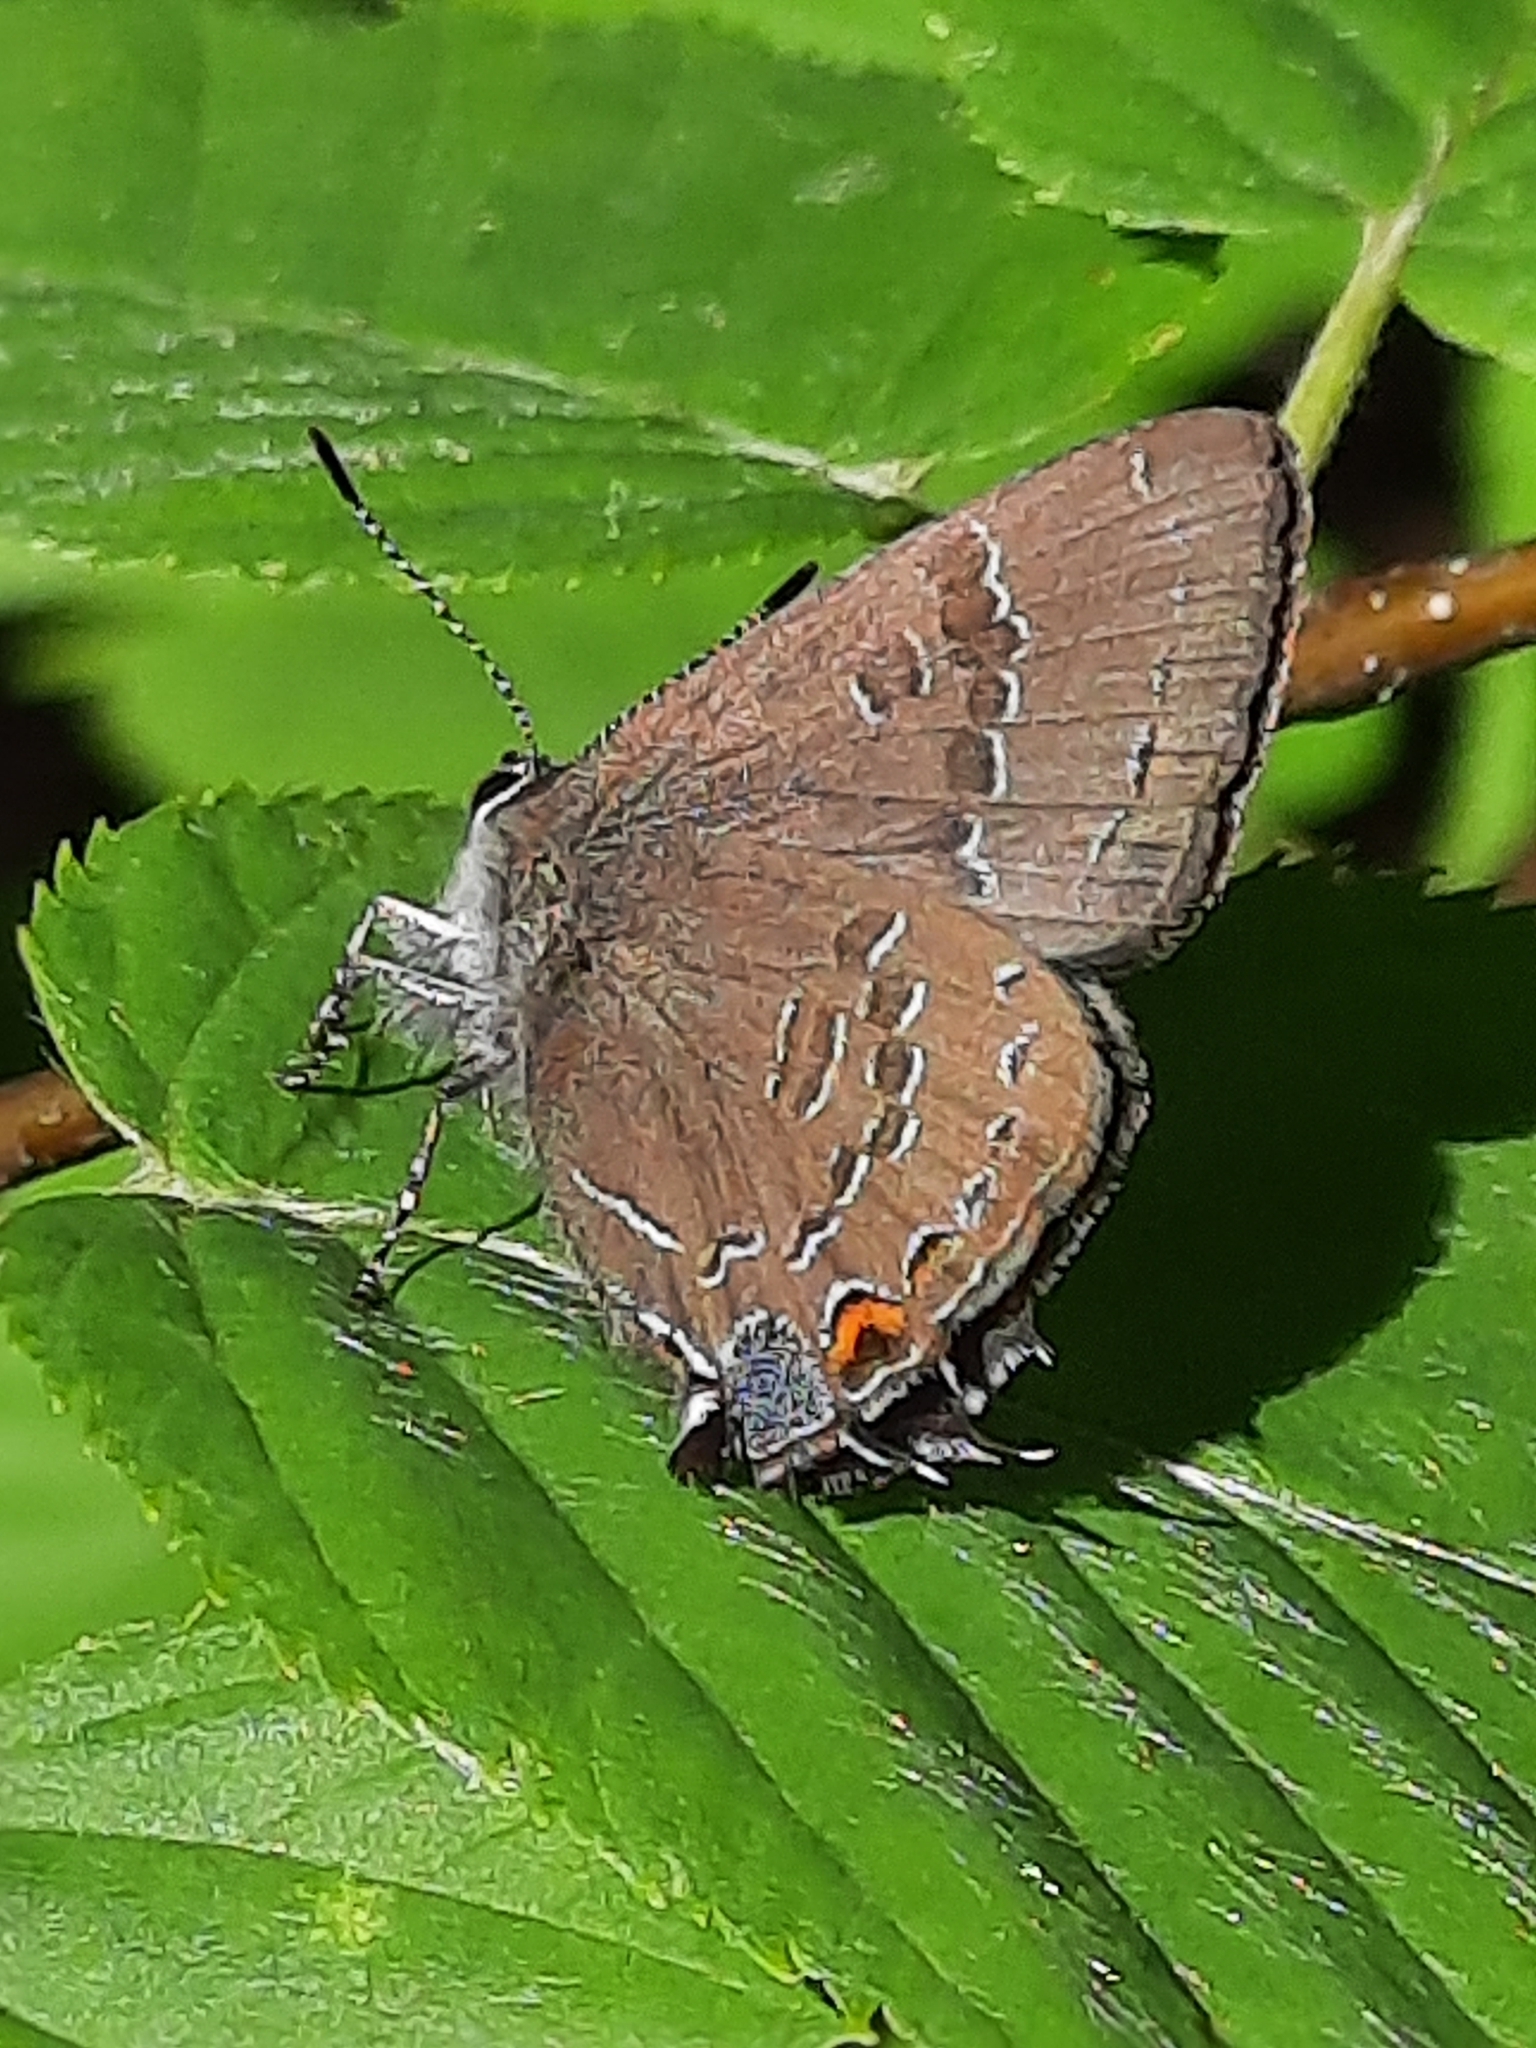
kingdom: Animalia
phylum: Arthropoda
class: Insecta
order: Lepidoptera
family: Lycaenidae
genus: Satyrium
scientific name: Satyrium calanus
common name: Banded hairstreak
